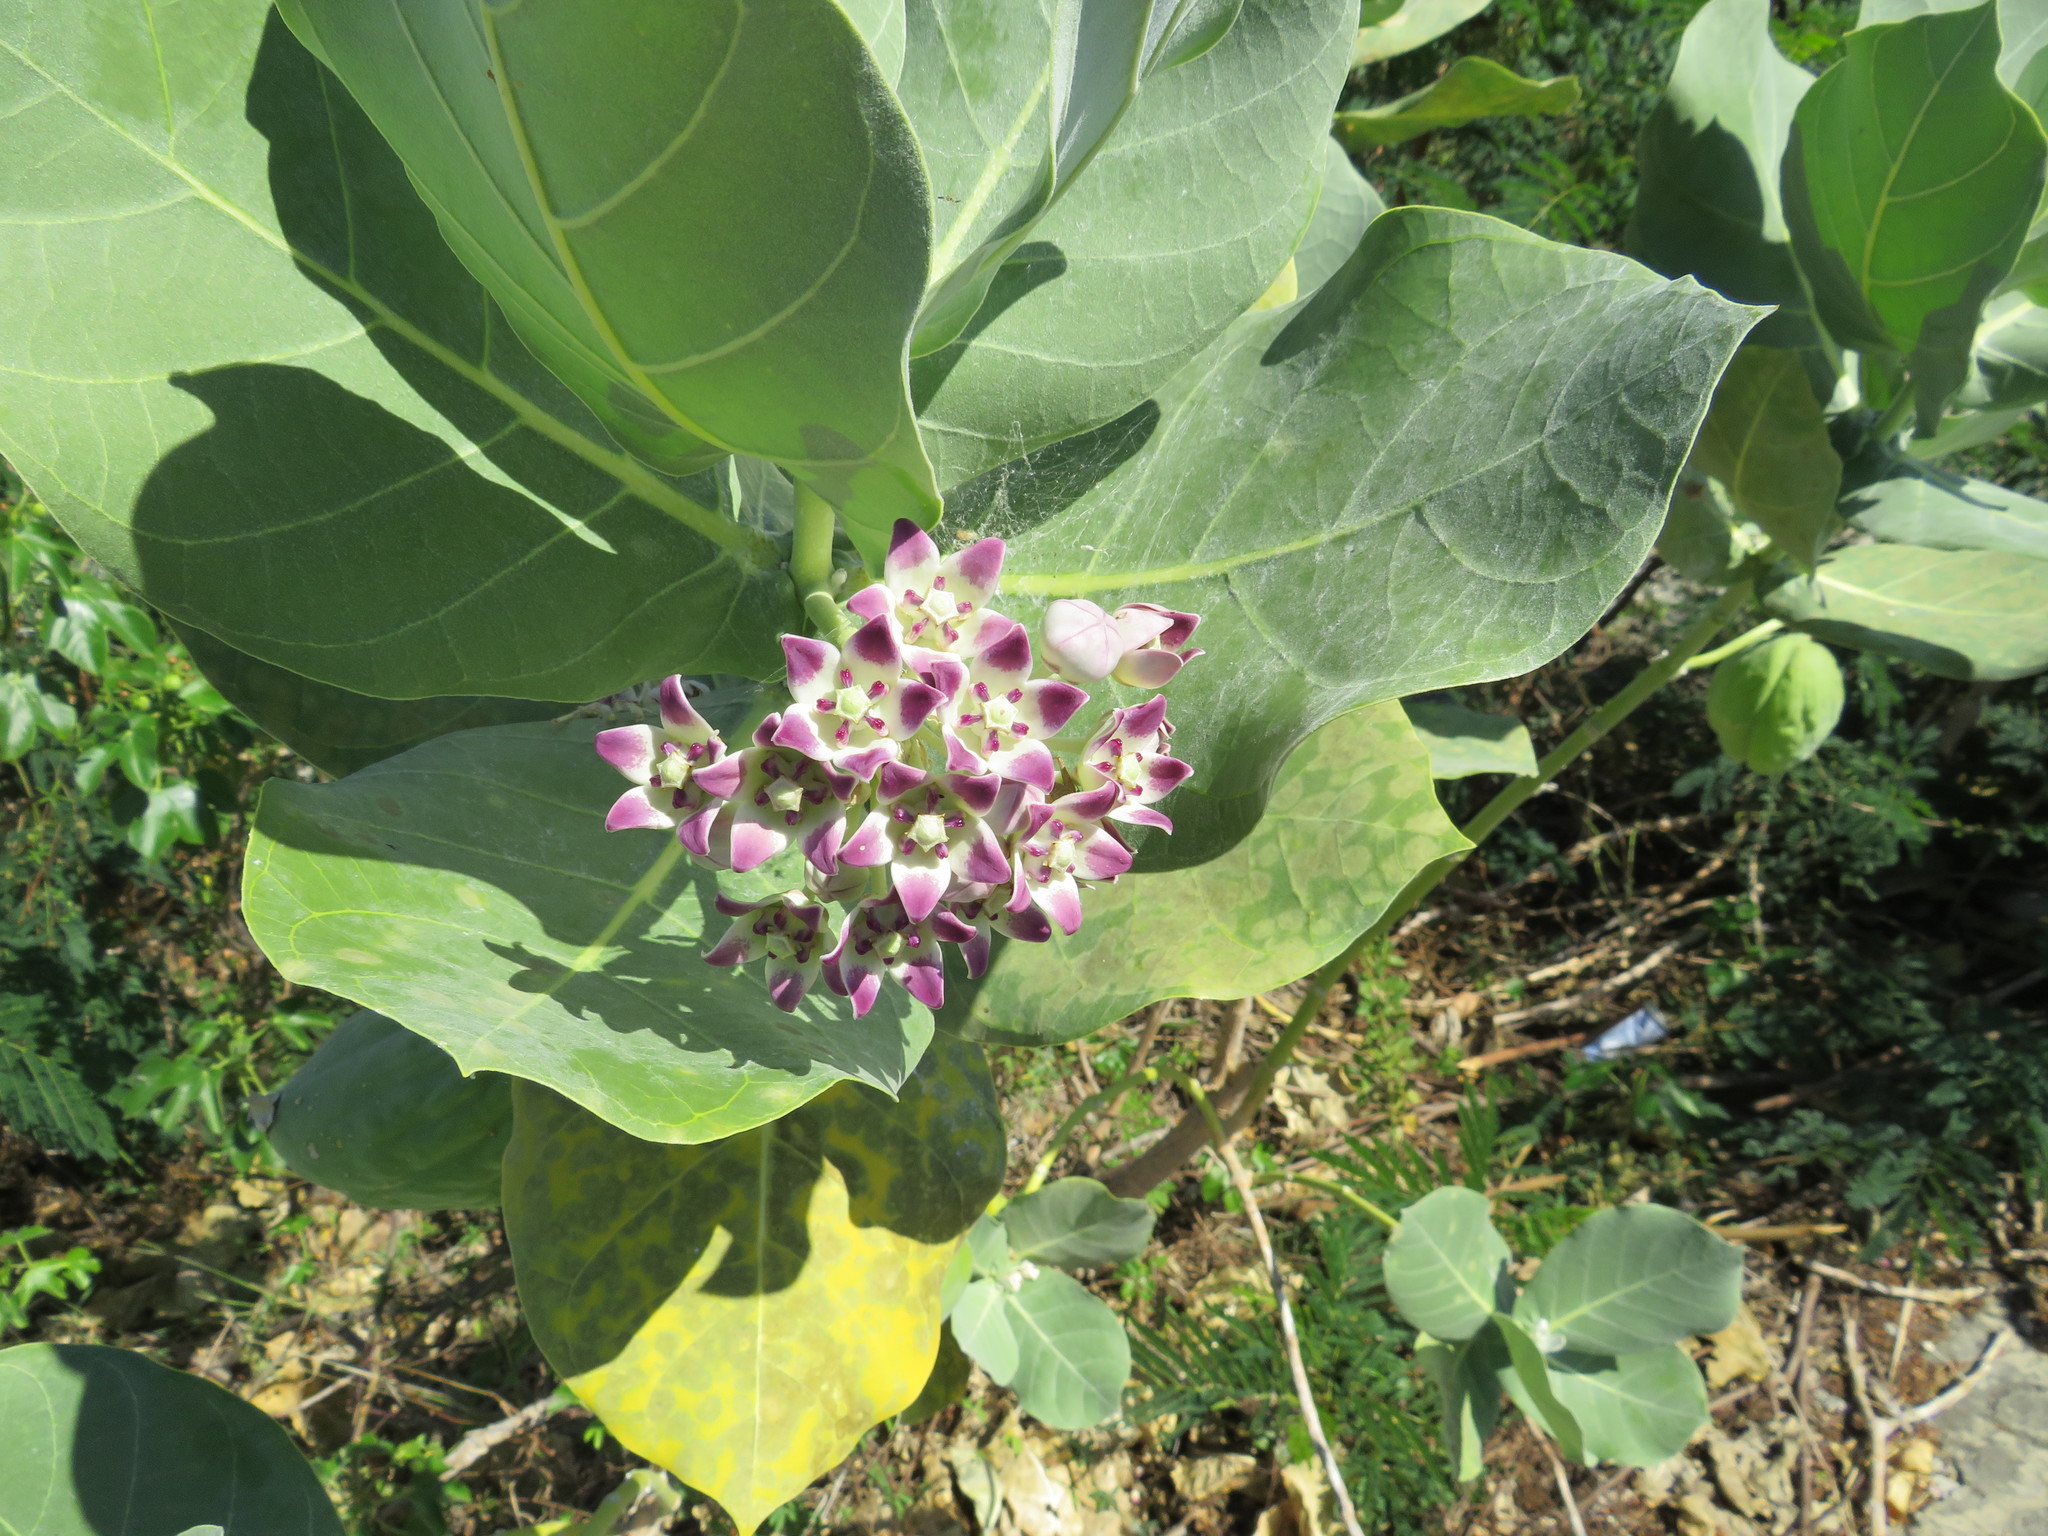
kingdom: Plantae
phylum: Tracheophyta
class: Magnoliopsida
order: Gentianales
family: Apocynaceae
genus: Calotropis
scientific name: Calotropis procera
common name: Roostertree
